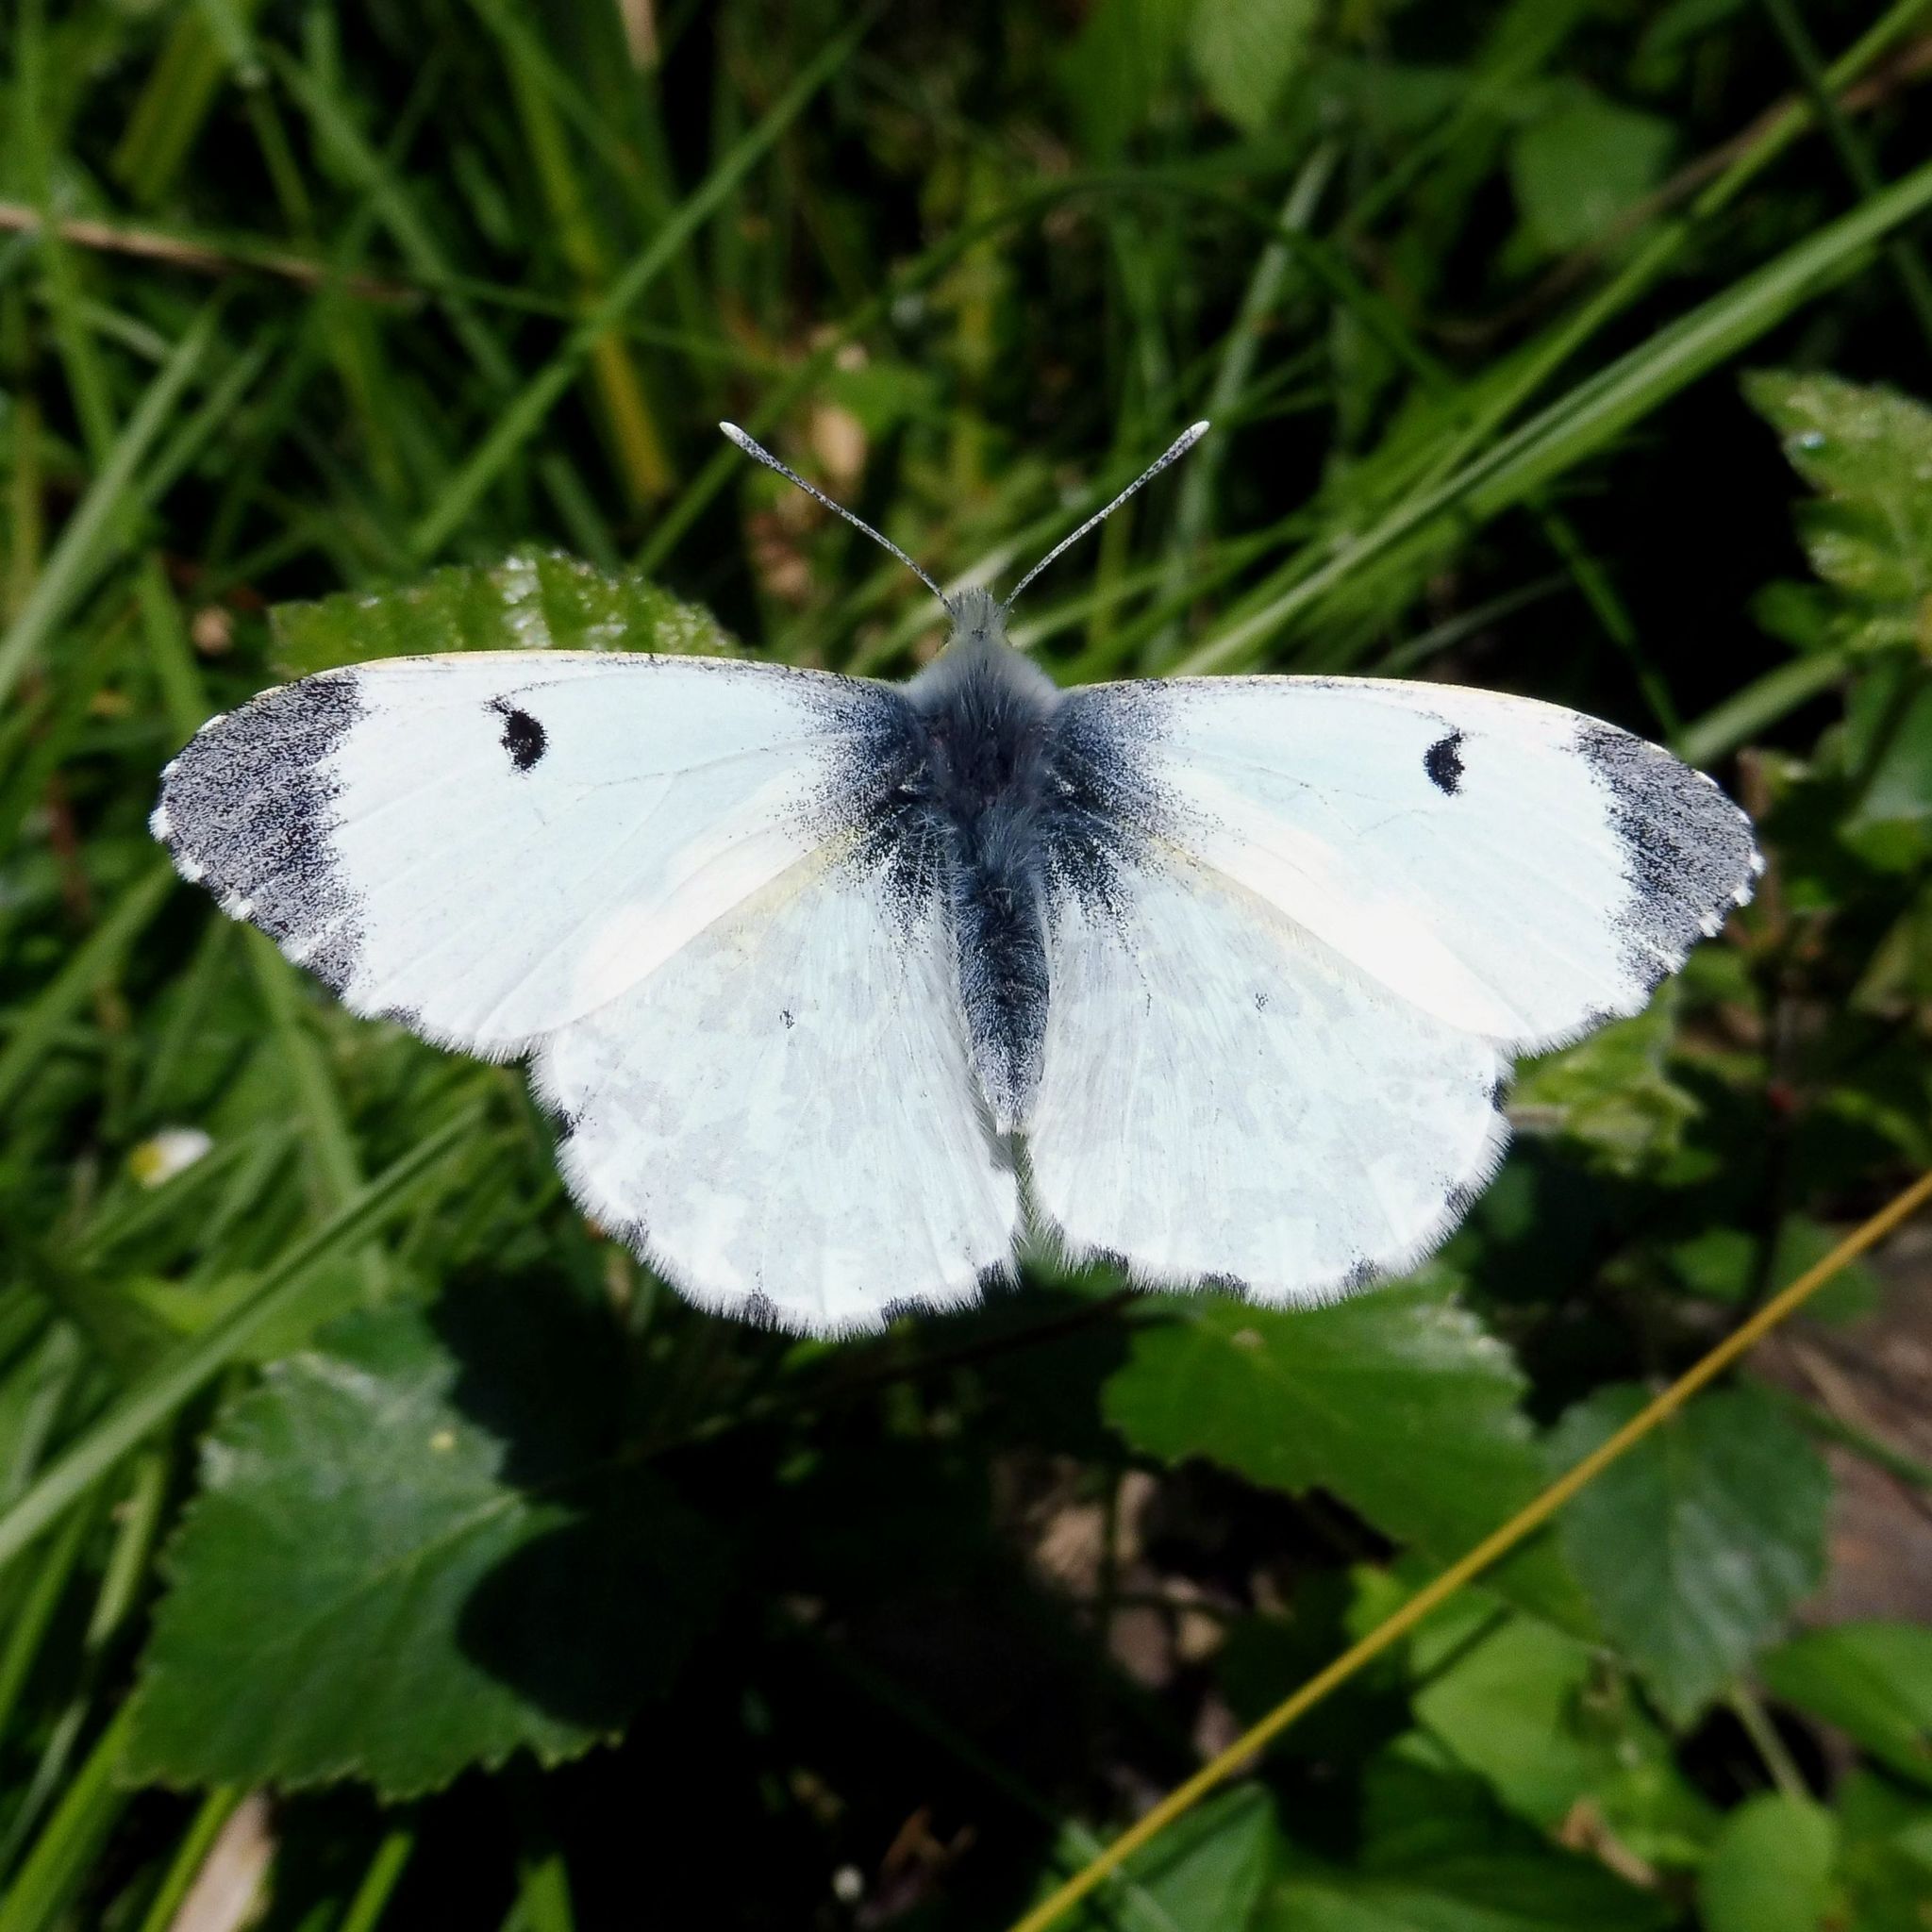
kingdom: Animalia
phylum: Arthropoda
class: Insecta
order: Lepidoptera
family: Pieridae
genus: Anthocharis
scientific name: Anthocharis cardamines
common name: Orange-tip
